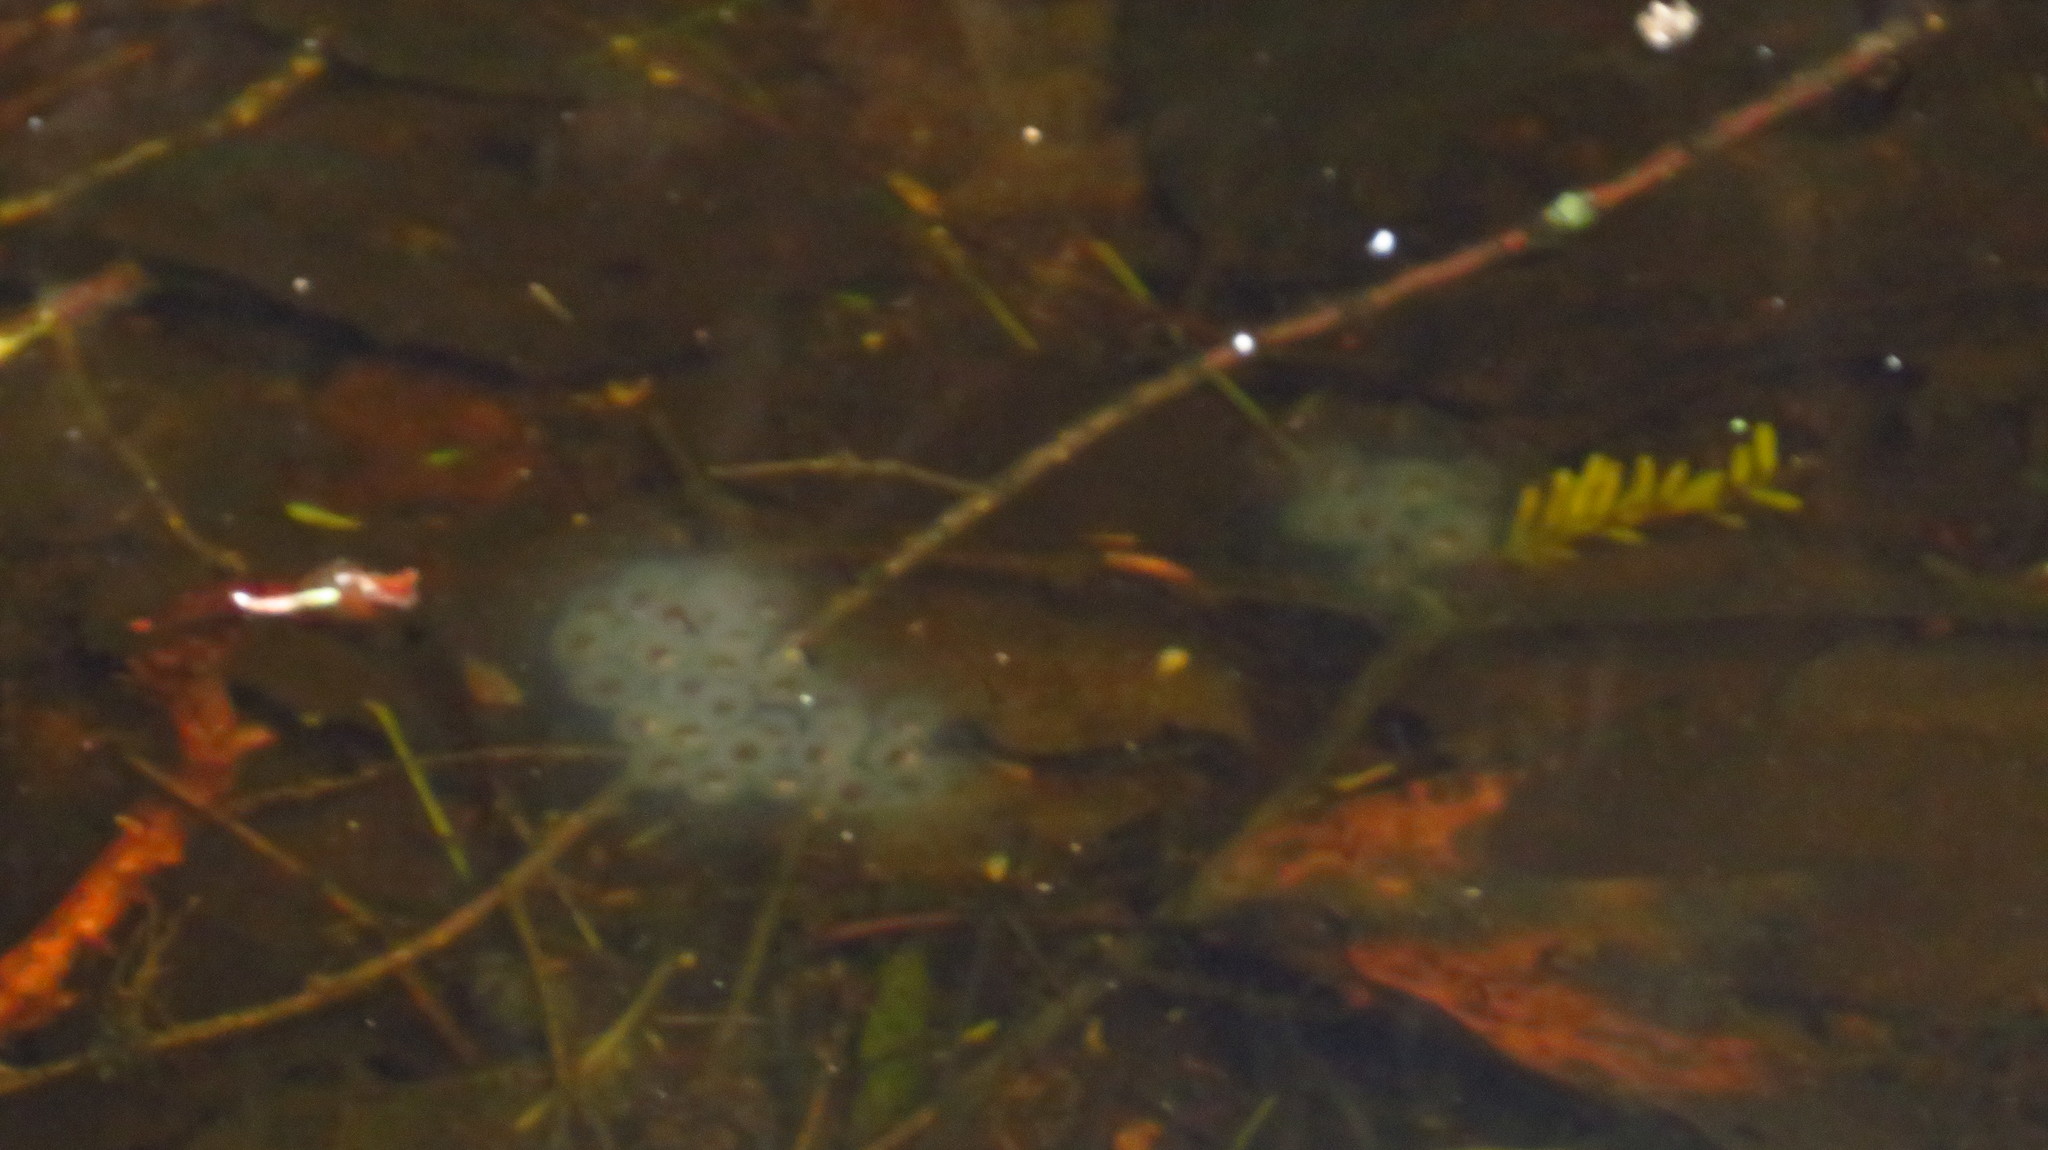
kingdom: Animalia
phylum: Chordata
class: Amphibia
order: Caudata
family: Ambystomatidae
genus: Ambystoma
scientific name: Ambystoma maculatum
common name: Spotted salamander
